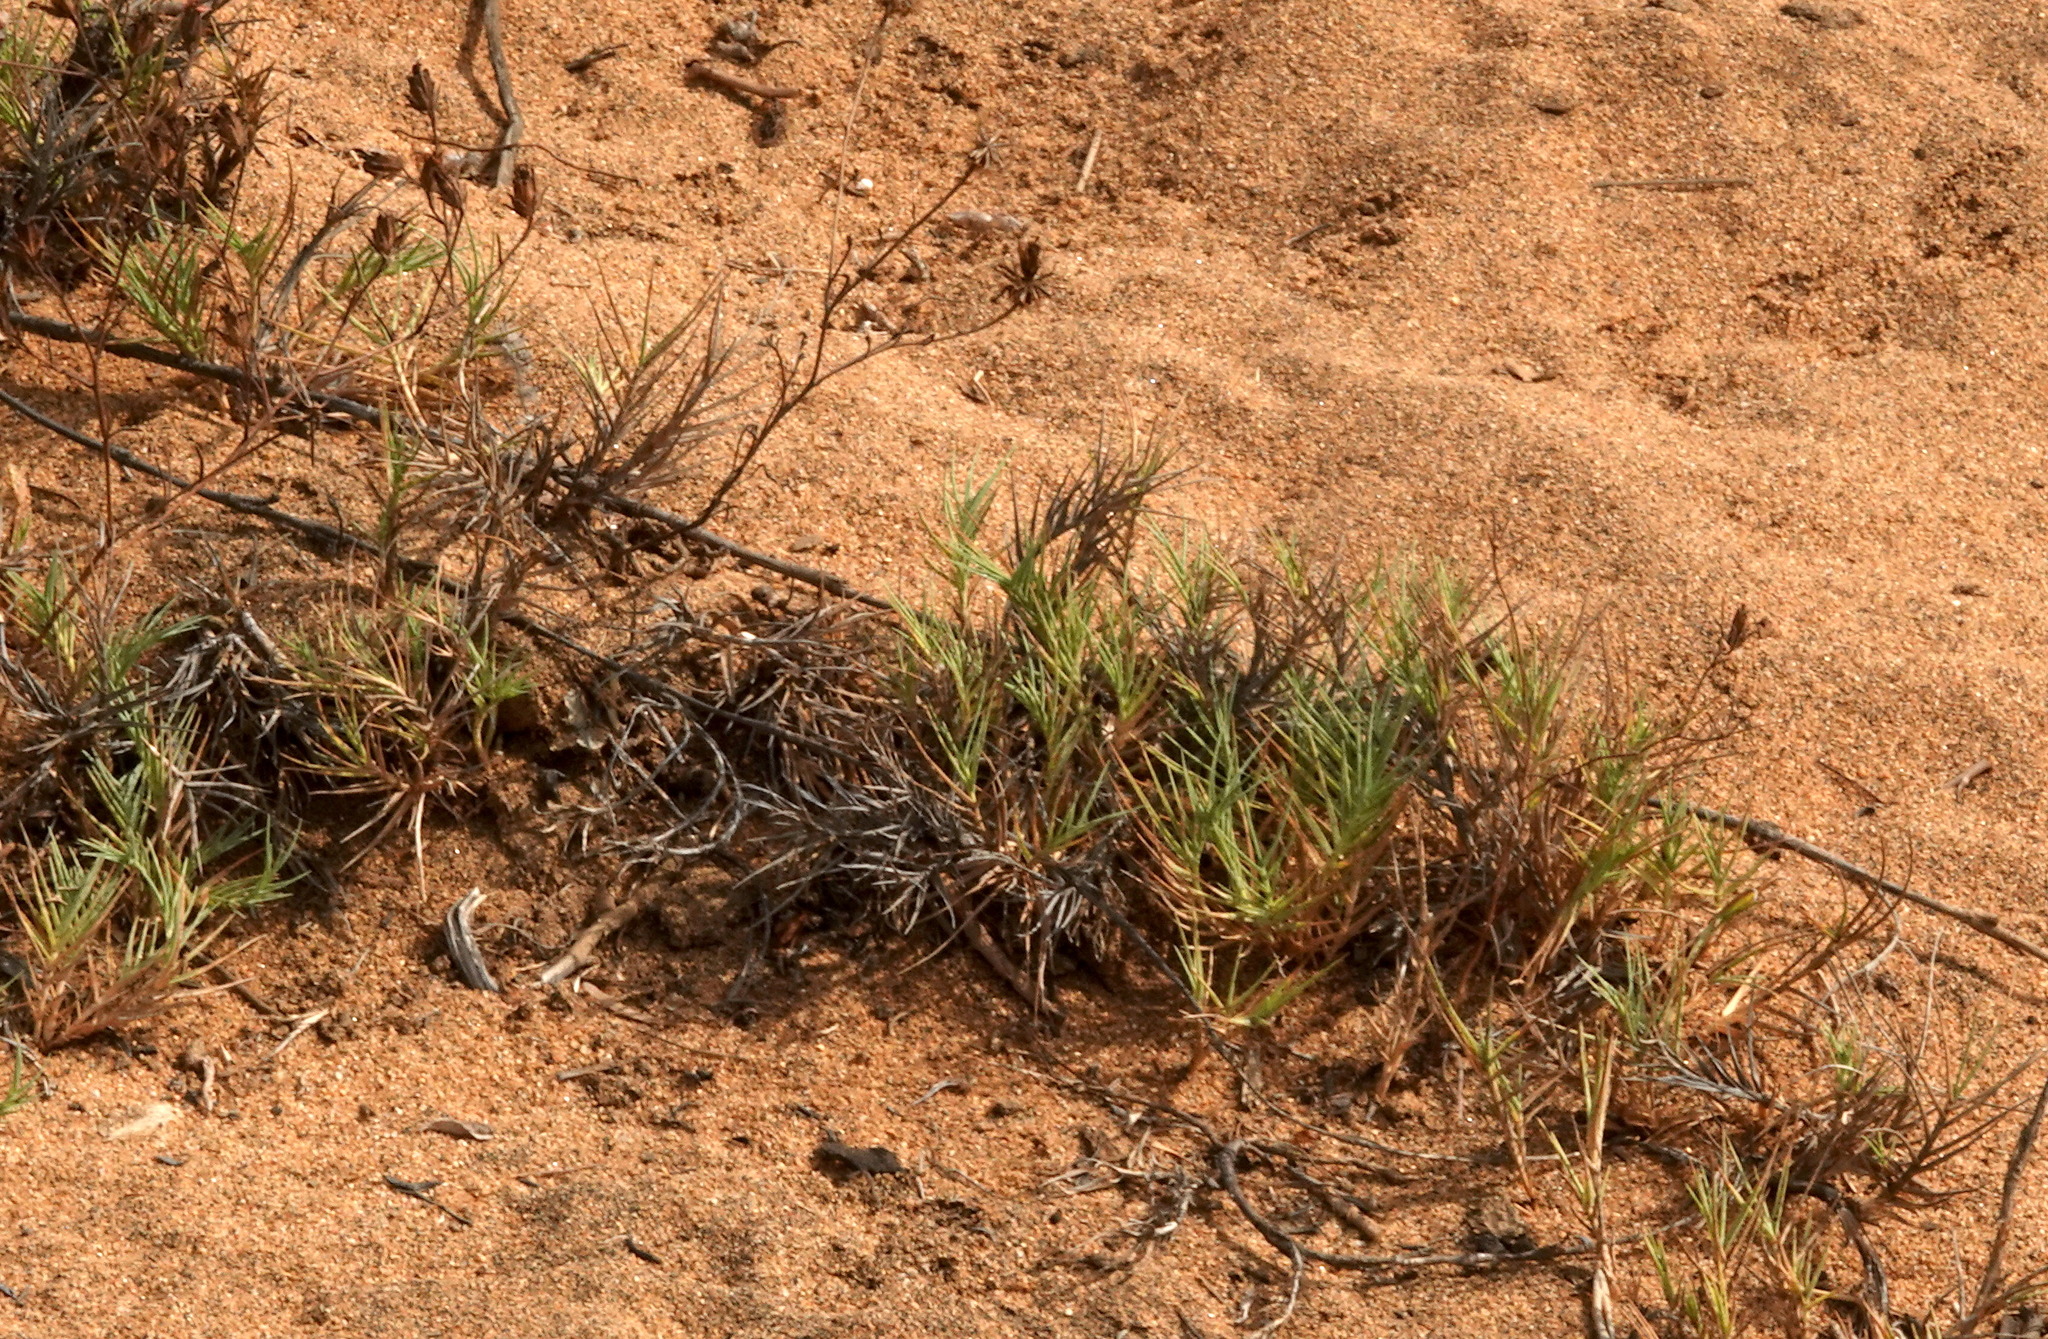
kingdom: Plantae
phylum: Tracheophyta
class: Liliopsida
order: Poales
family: Poaceae
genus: Distichlis
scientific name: Distichlis spicata
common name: Saltgrass
